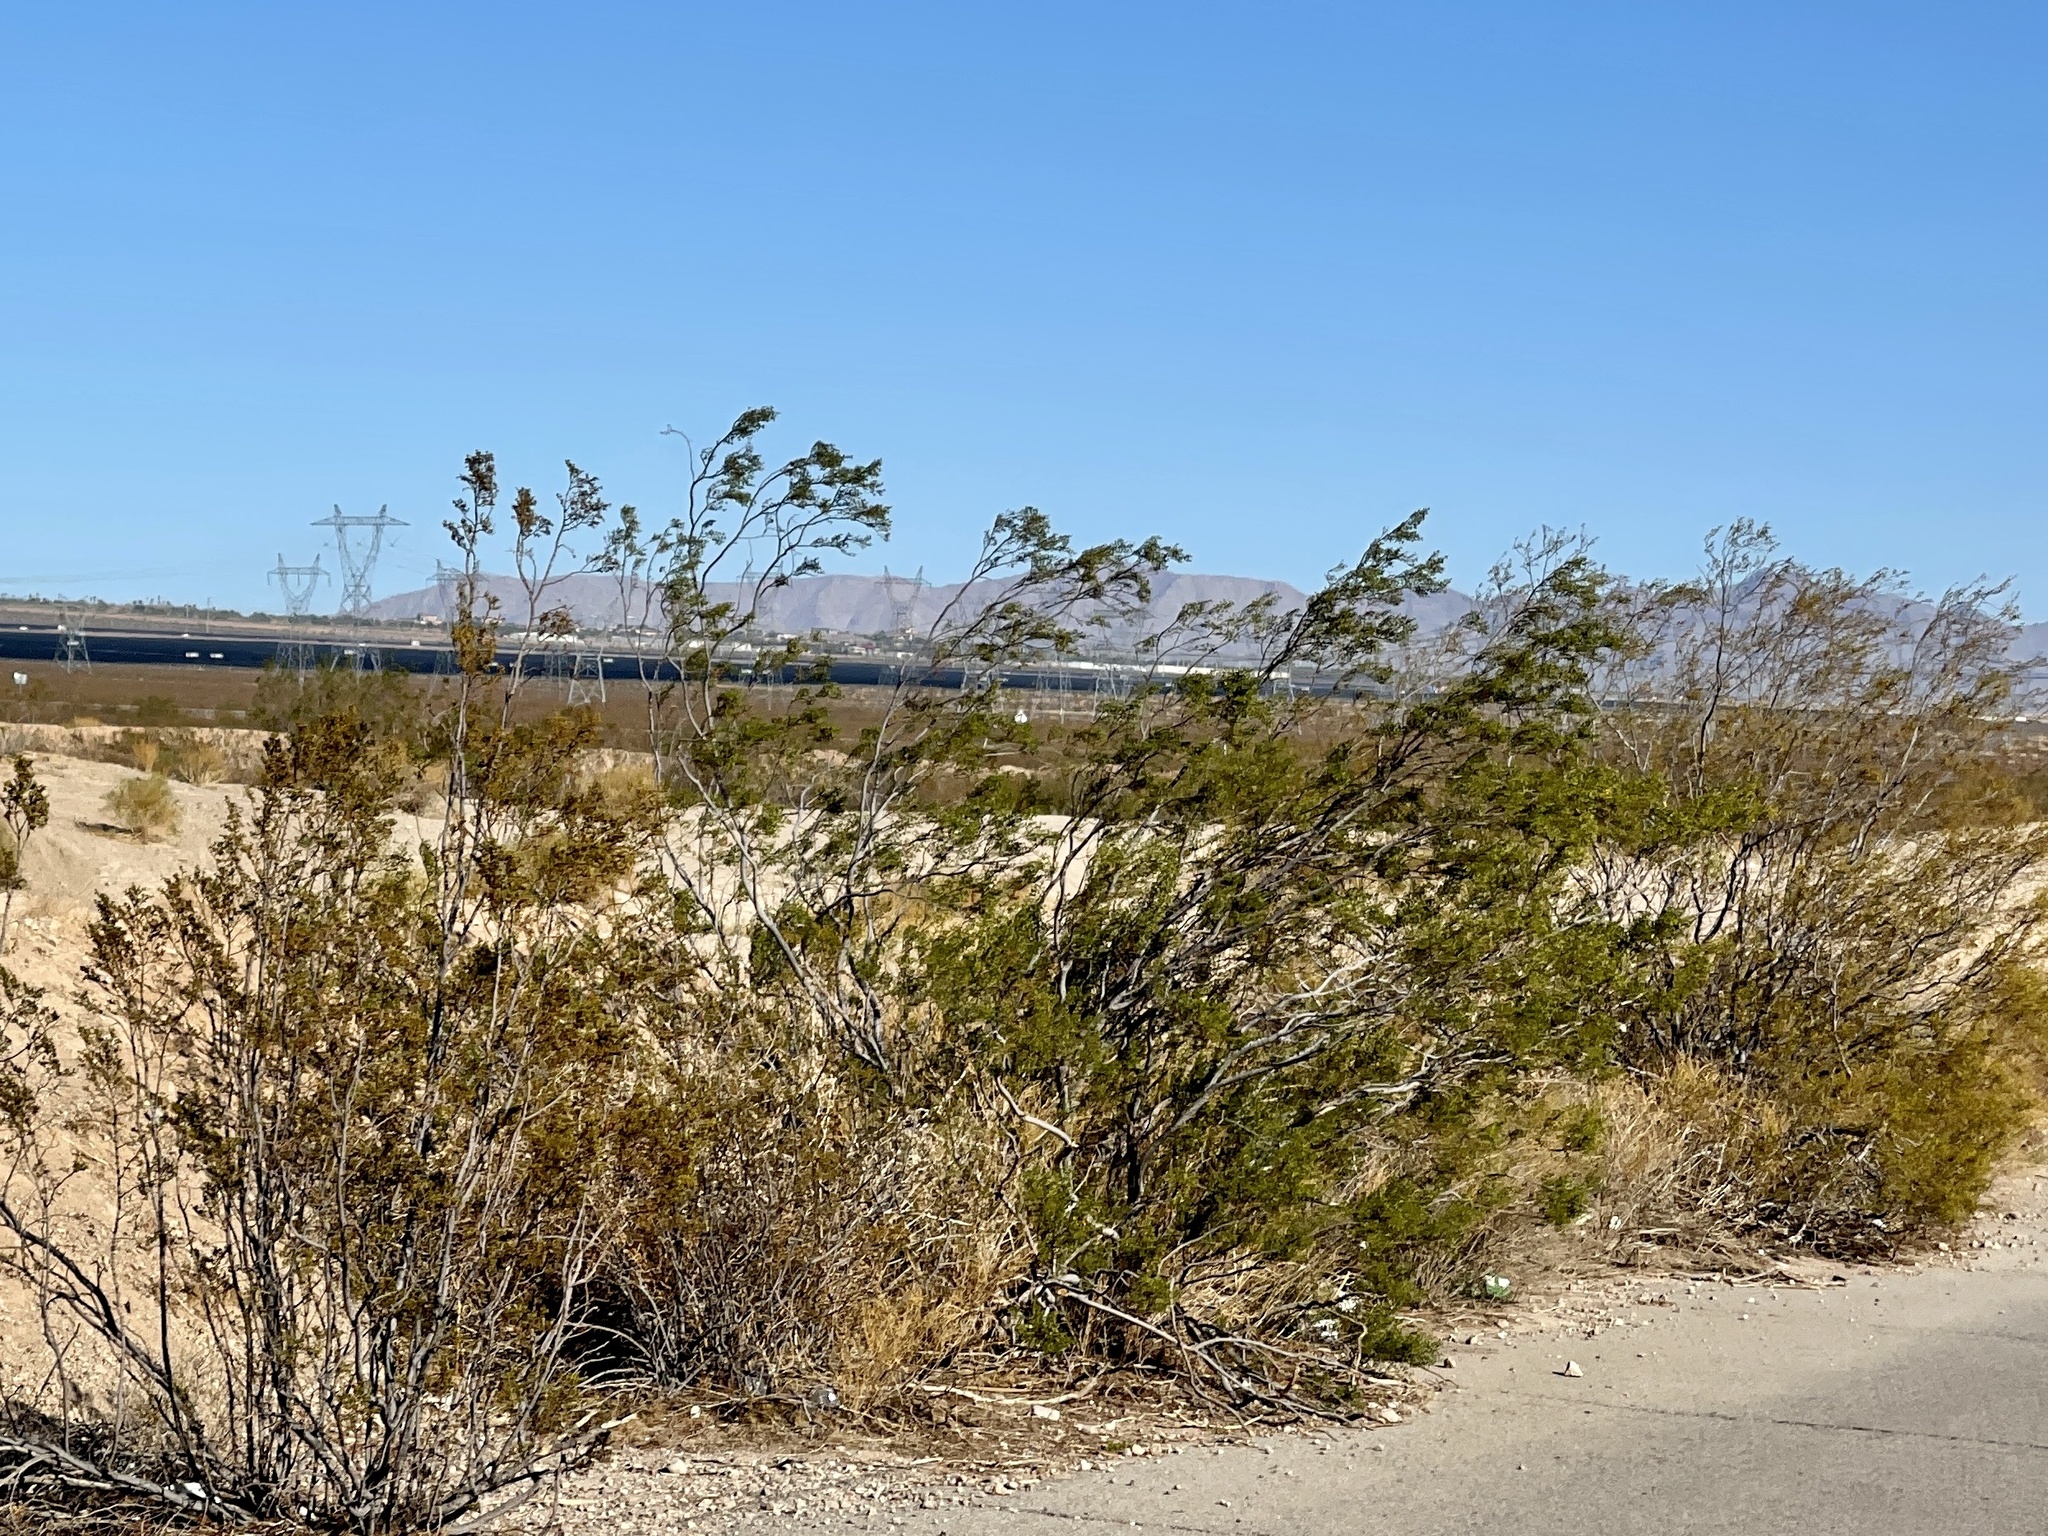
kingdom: Plantae
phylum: Tracheophyta
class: Magnoliopsida
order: Zygophyllales
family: Zygophyllaceae
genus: Larrea
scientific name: Larrea tridentata
